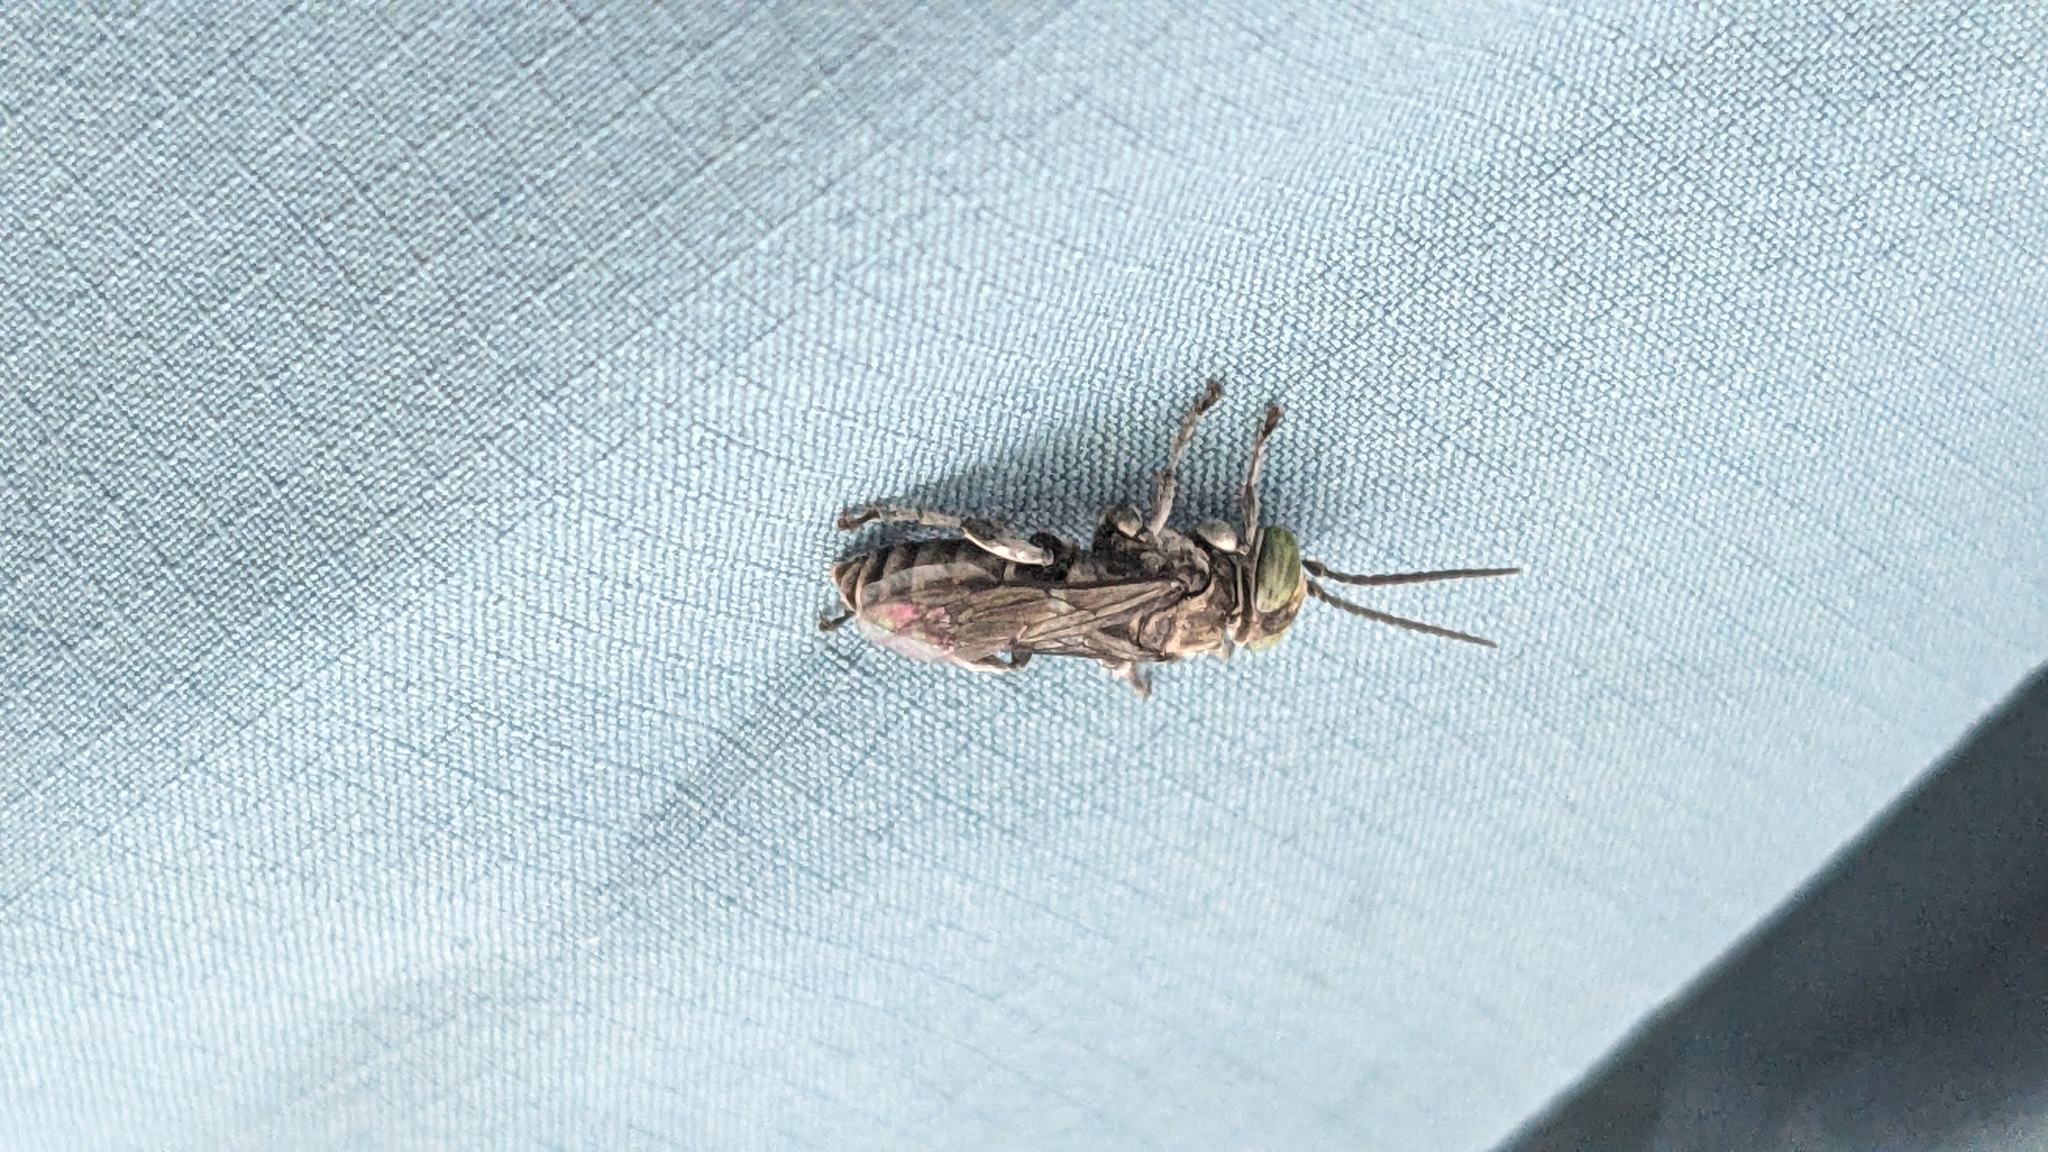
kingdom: Animalia
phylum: Arthropoda
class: Insecta
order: Hymenoptera
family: Crabronidae
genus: Tachysphex
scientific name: Tachysphex nigerrimus
